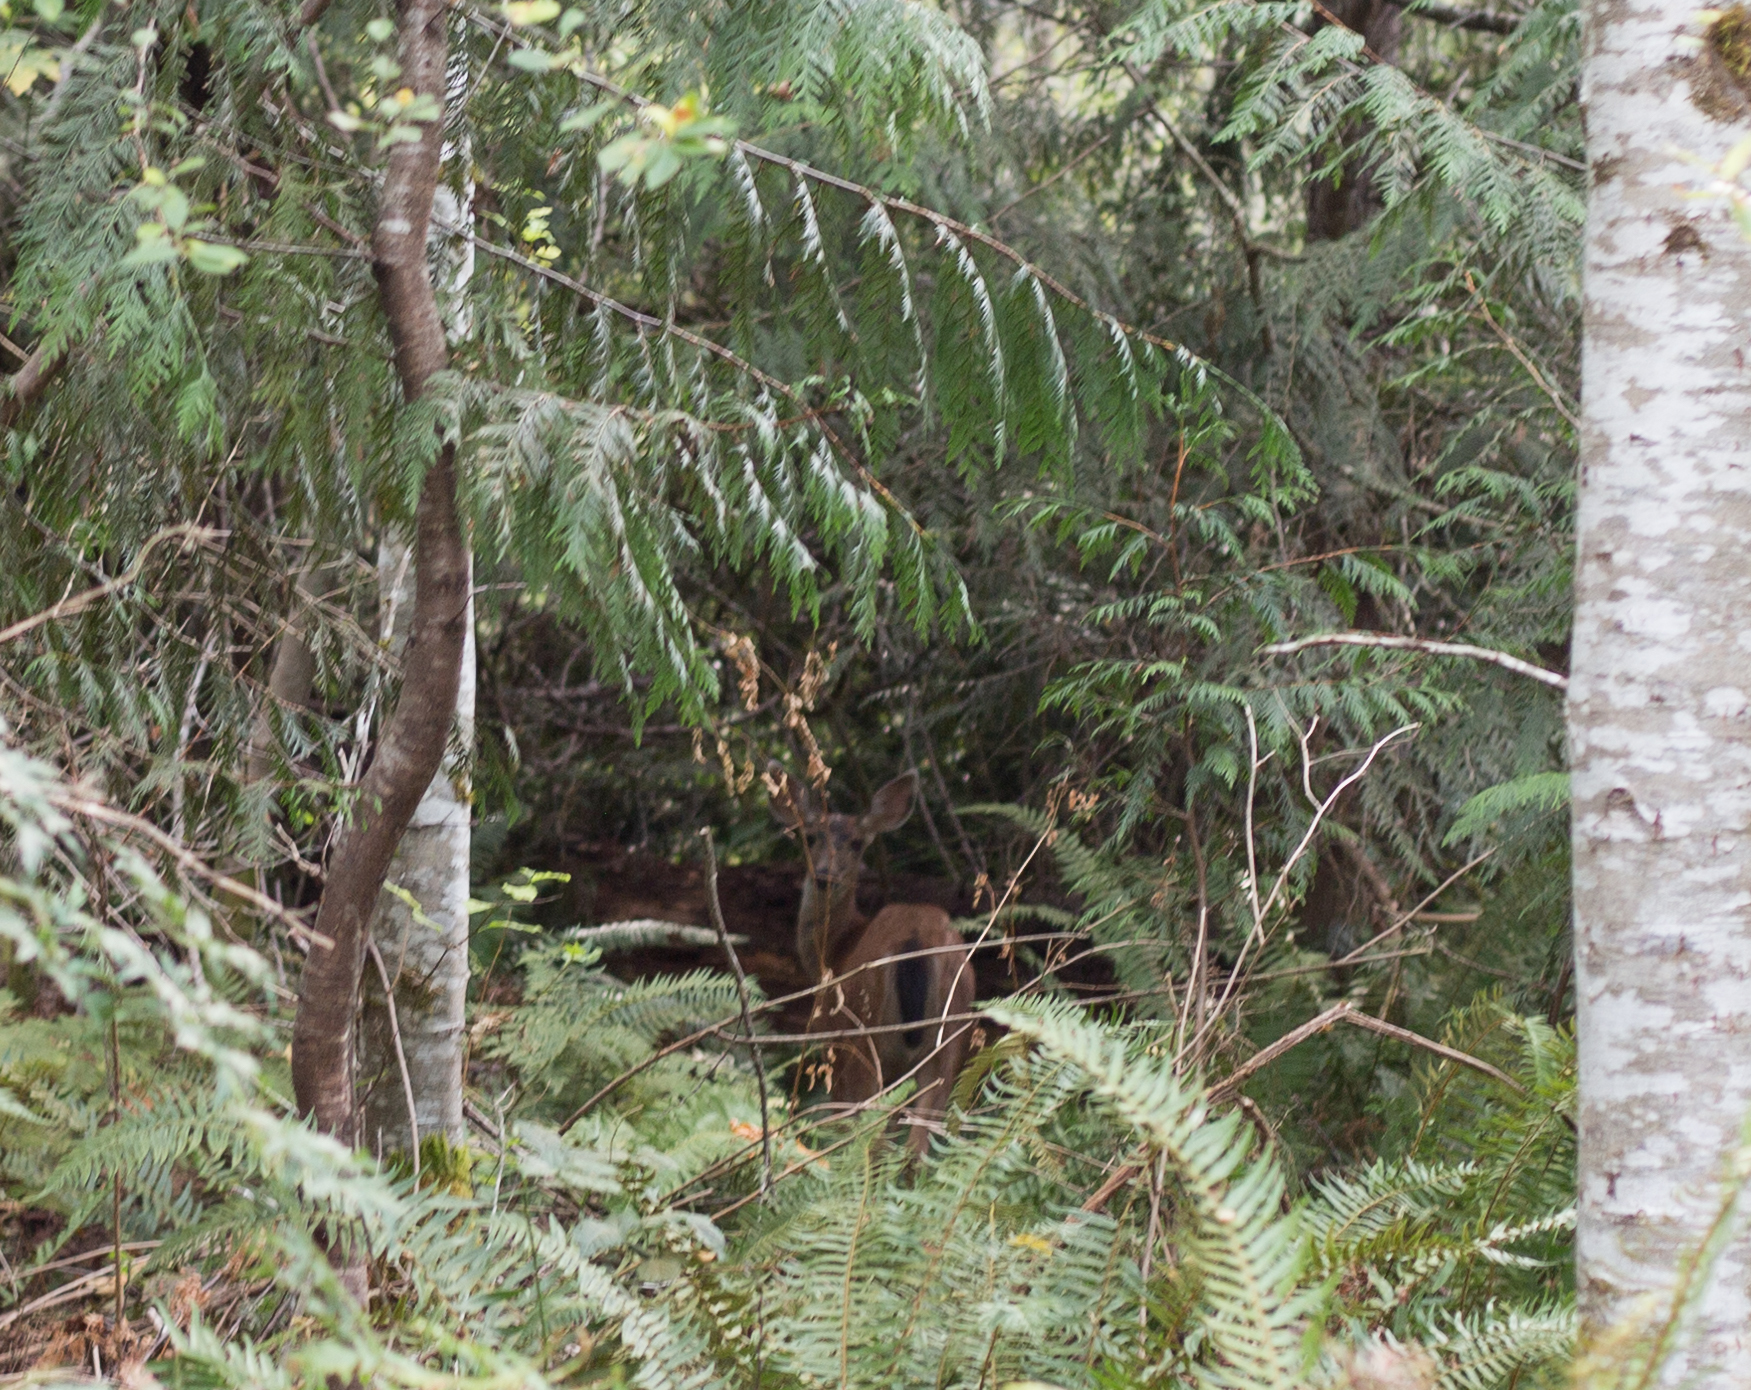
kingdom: Animalia
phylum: Chordata
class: Mammalia
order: Artiodactyla
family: Cervidae
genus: Odocoileus
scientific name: Odocoileus hemionus
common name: Mule deer
